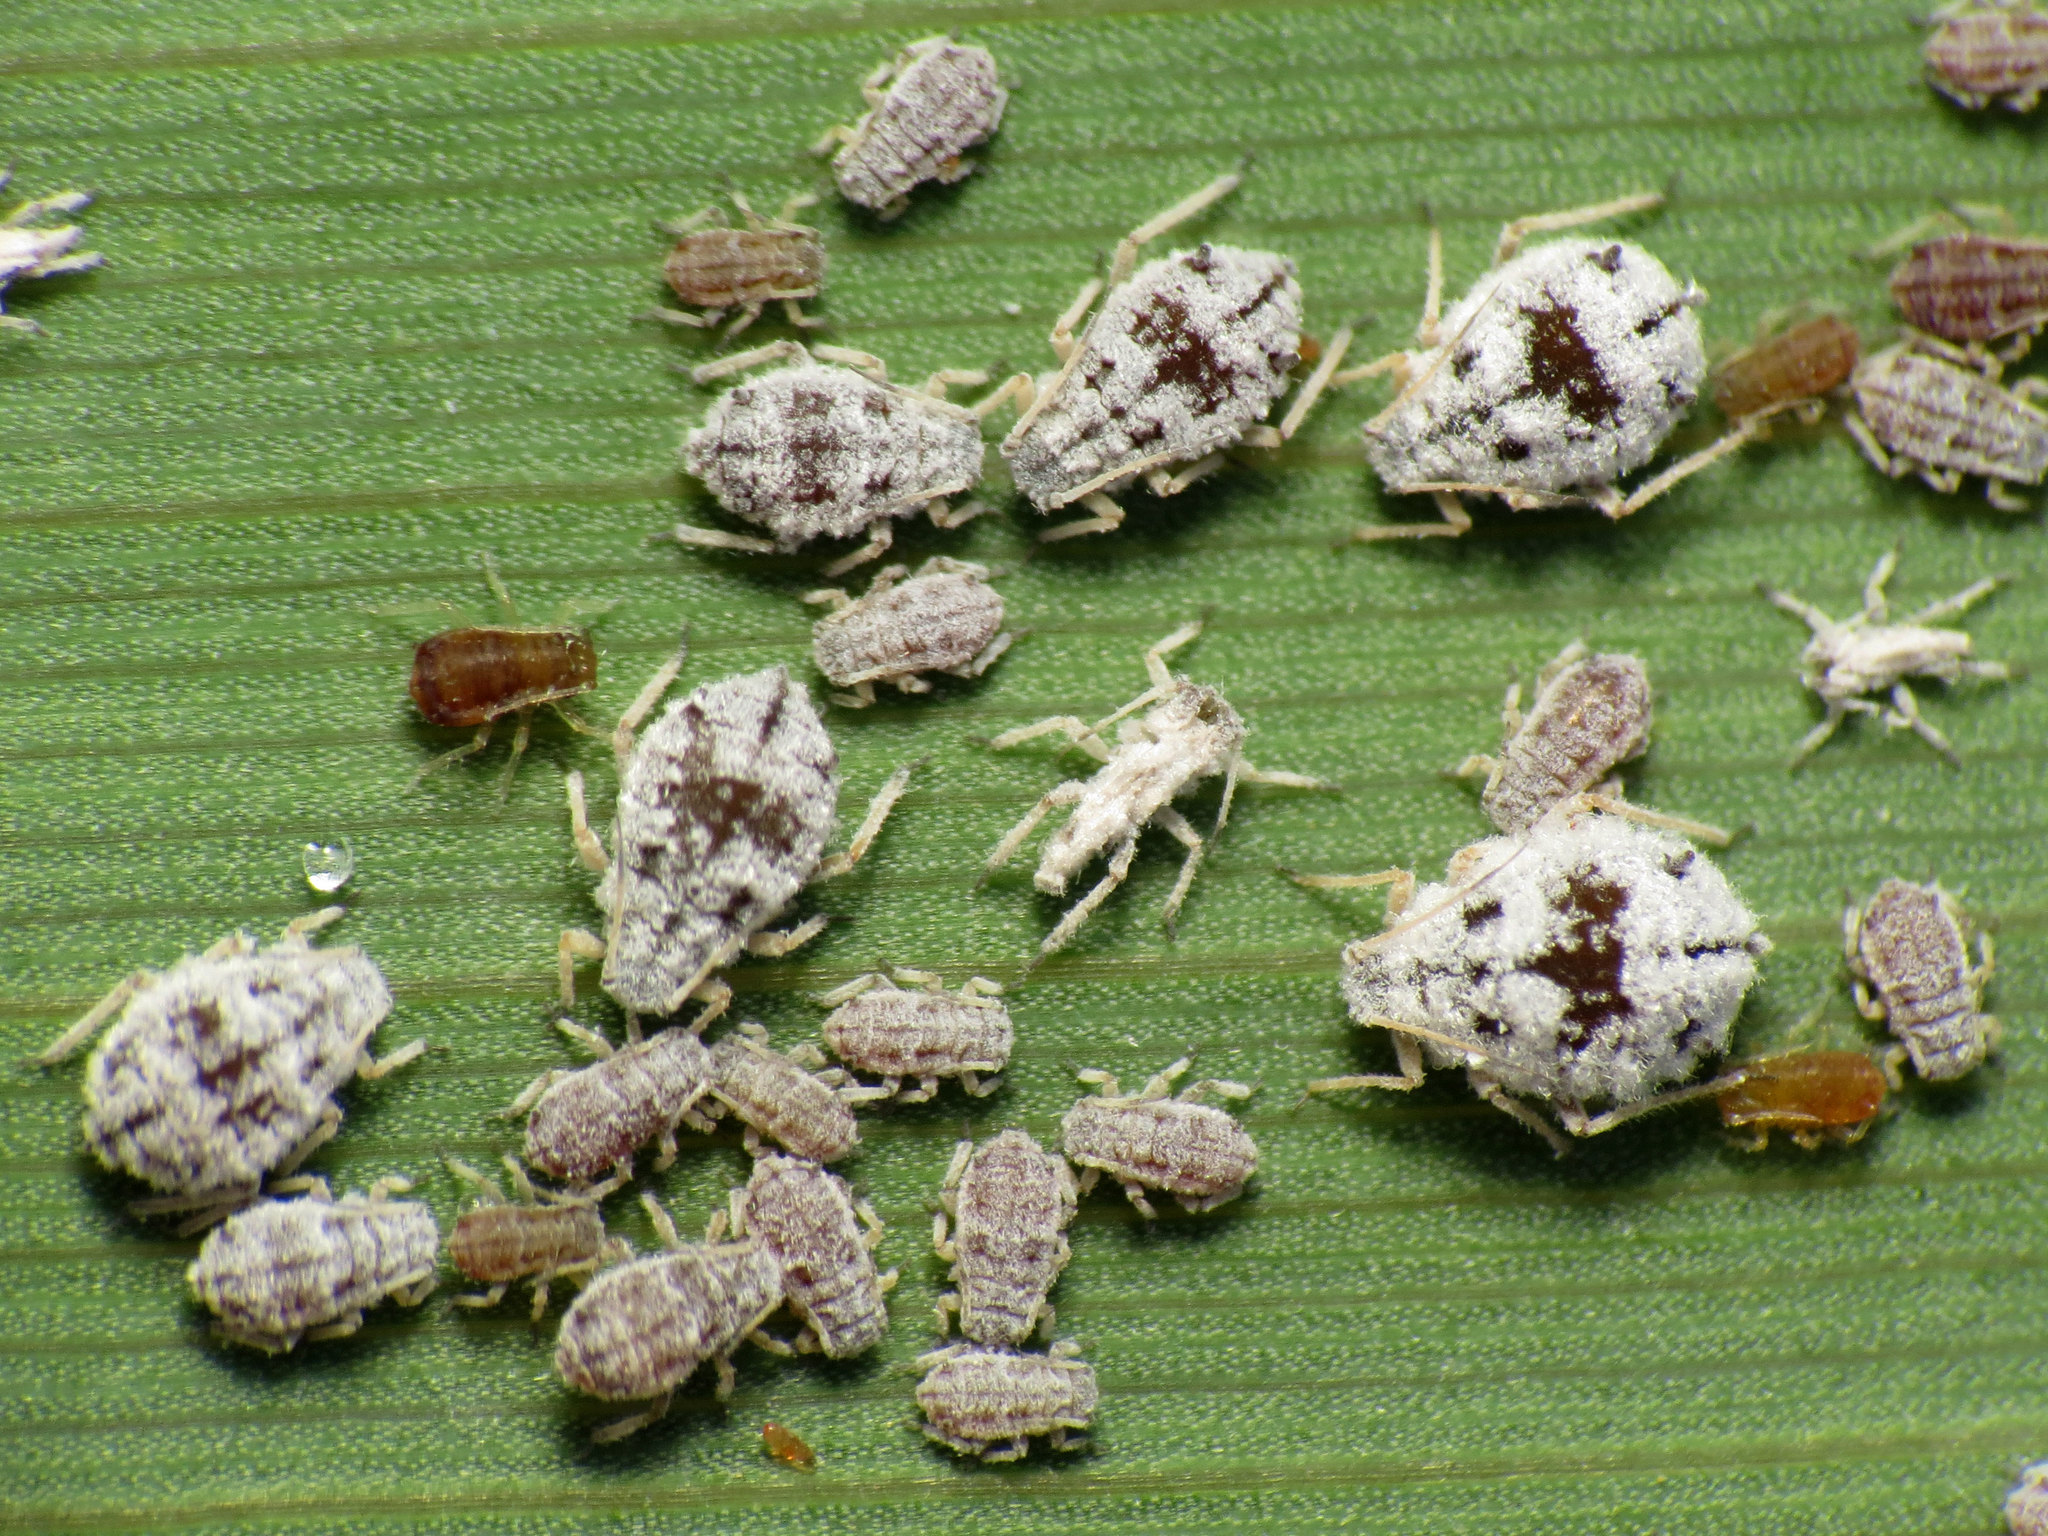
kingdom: Animalia
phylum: Arthropoda
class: Insecta
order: Hemiptera
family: Aphididae
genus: Melanaphis
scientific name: Melanaphis donacis
